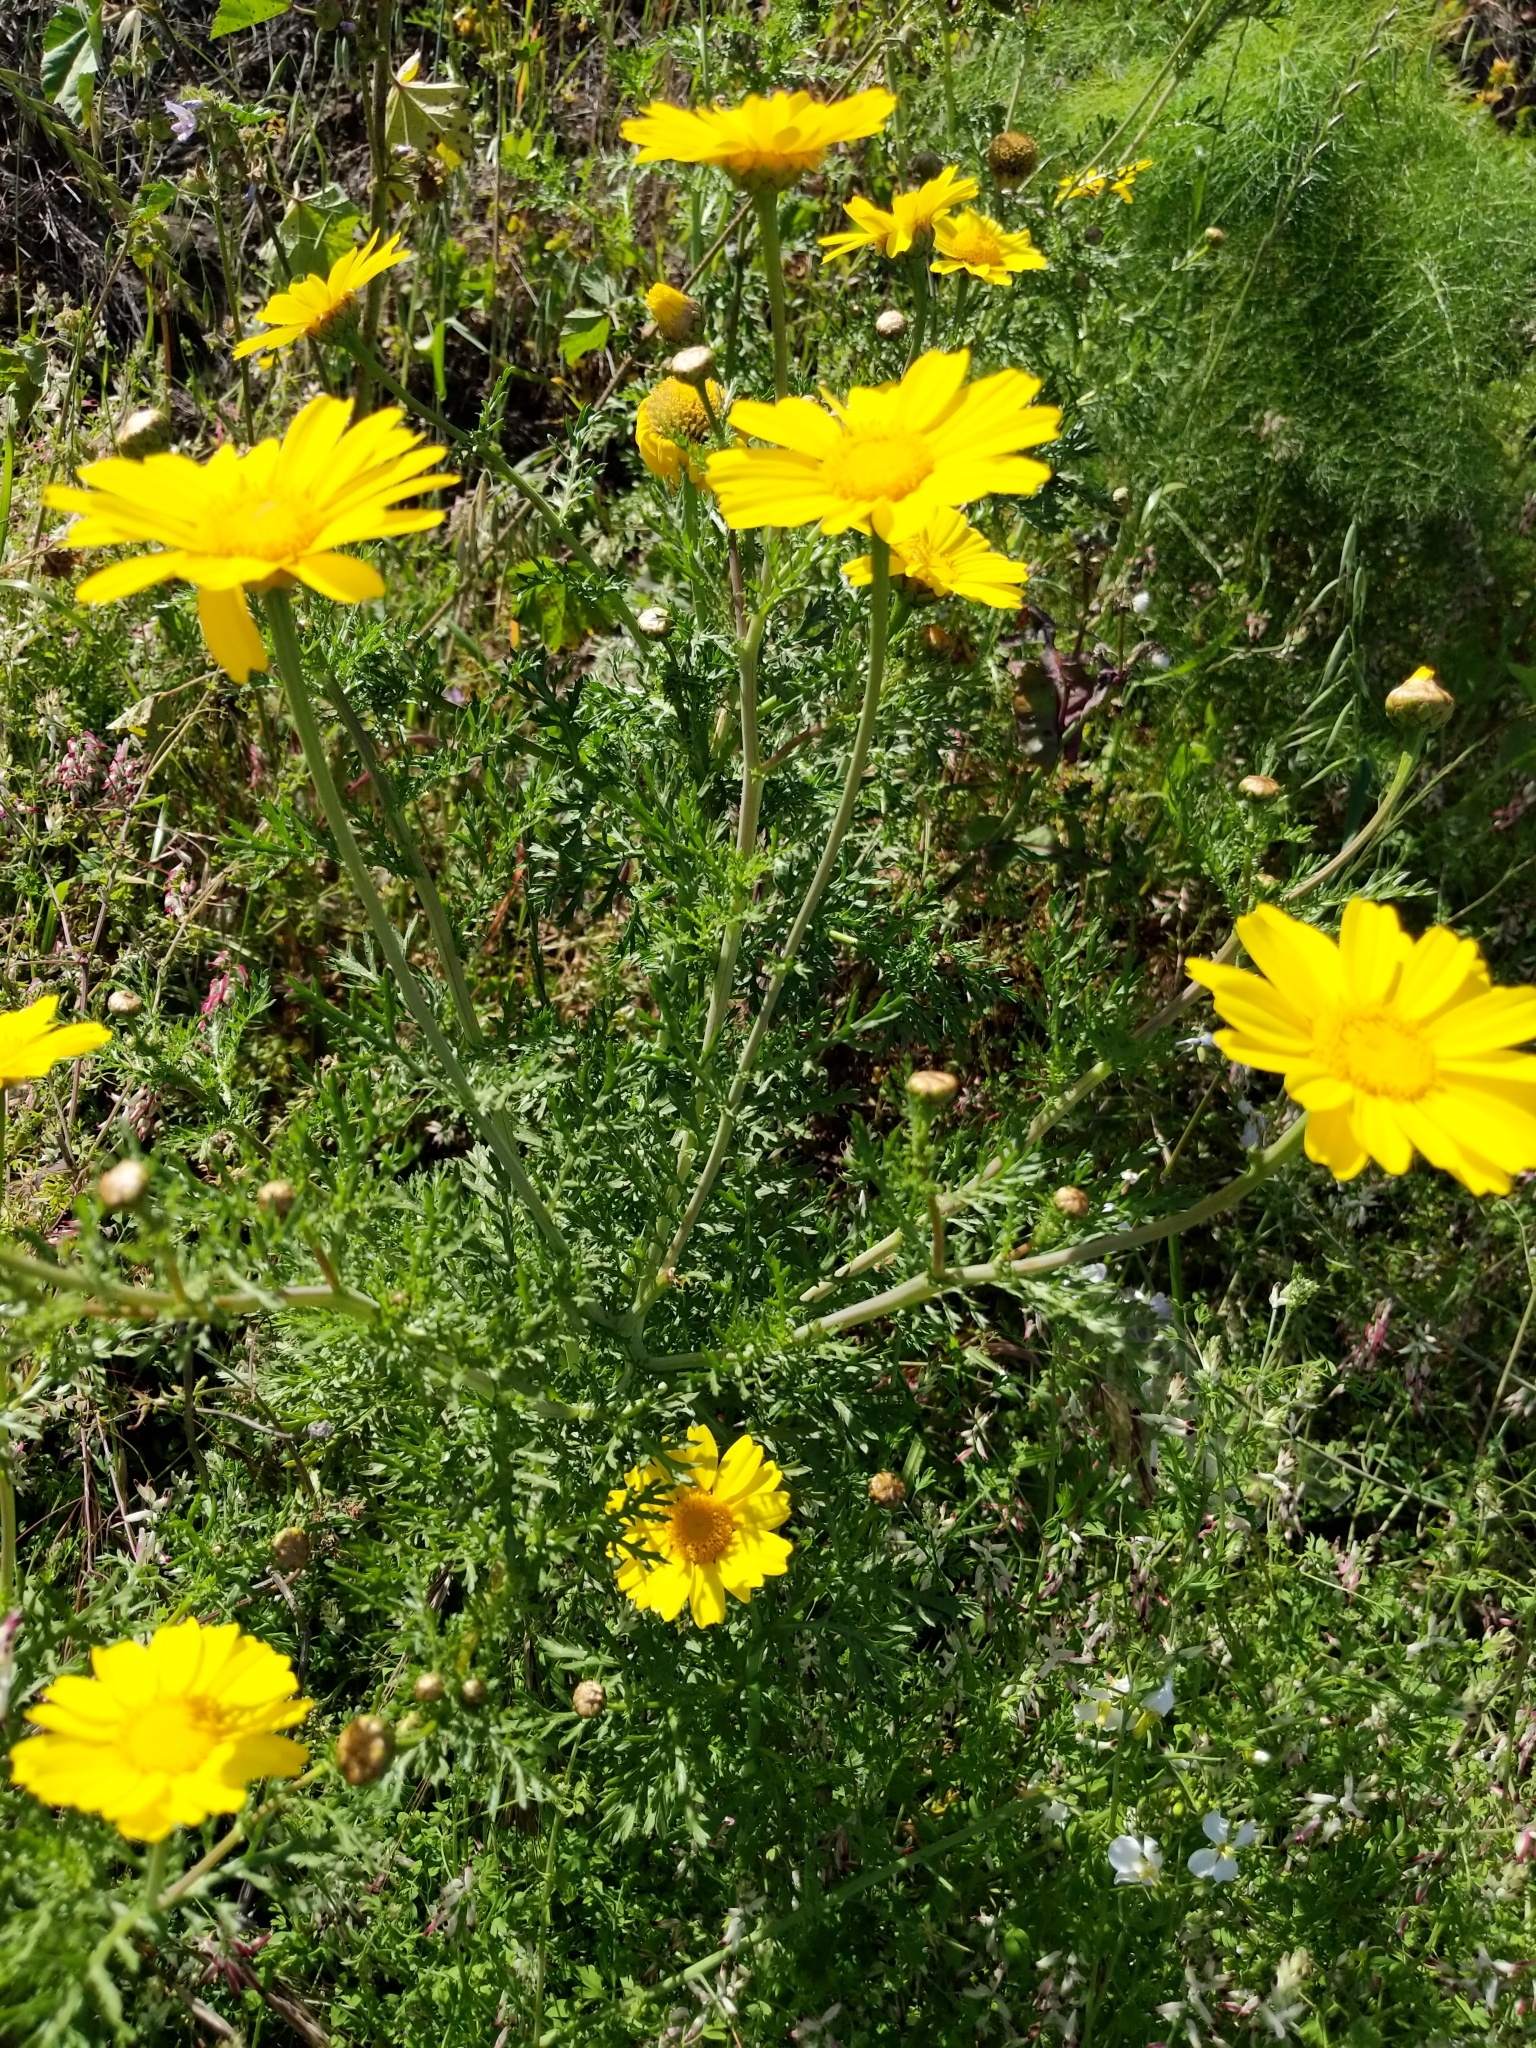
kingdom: Plantae
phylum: Tracheophyta
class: Magnoliopsida
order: Asterales
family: Asteraceae
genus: Glebionis
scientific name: Glebionis coronaria
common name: Crowndaisy
